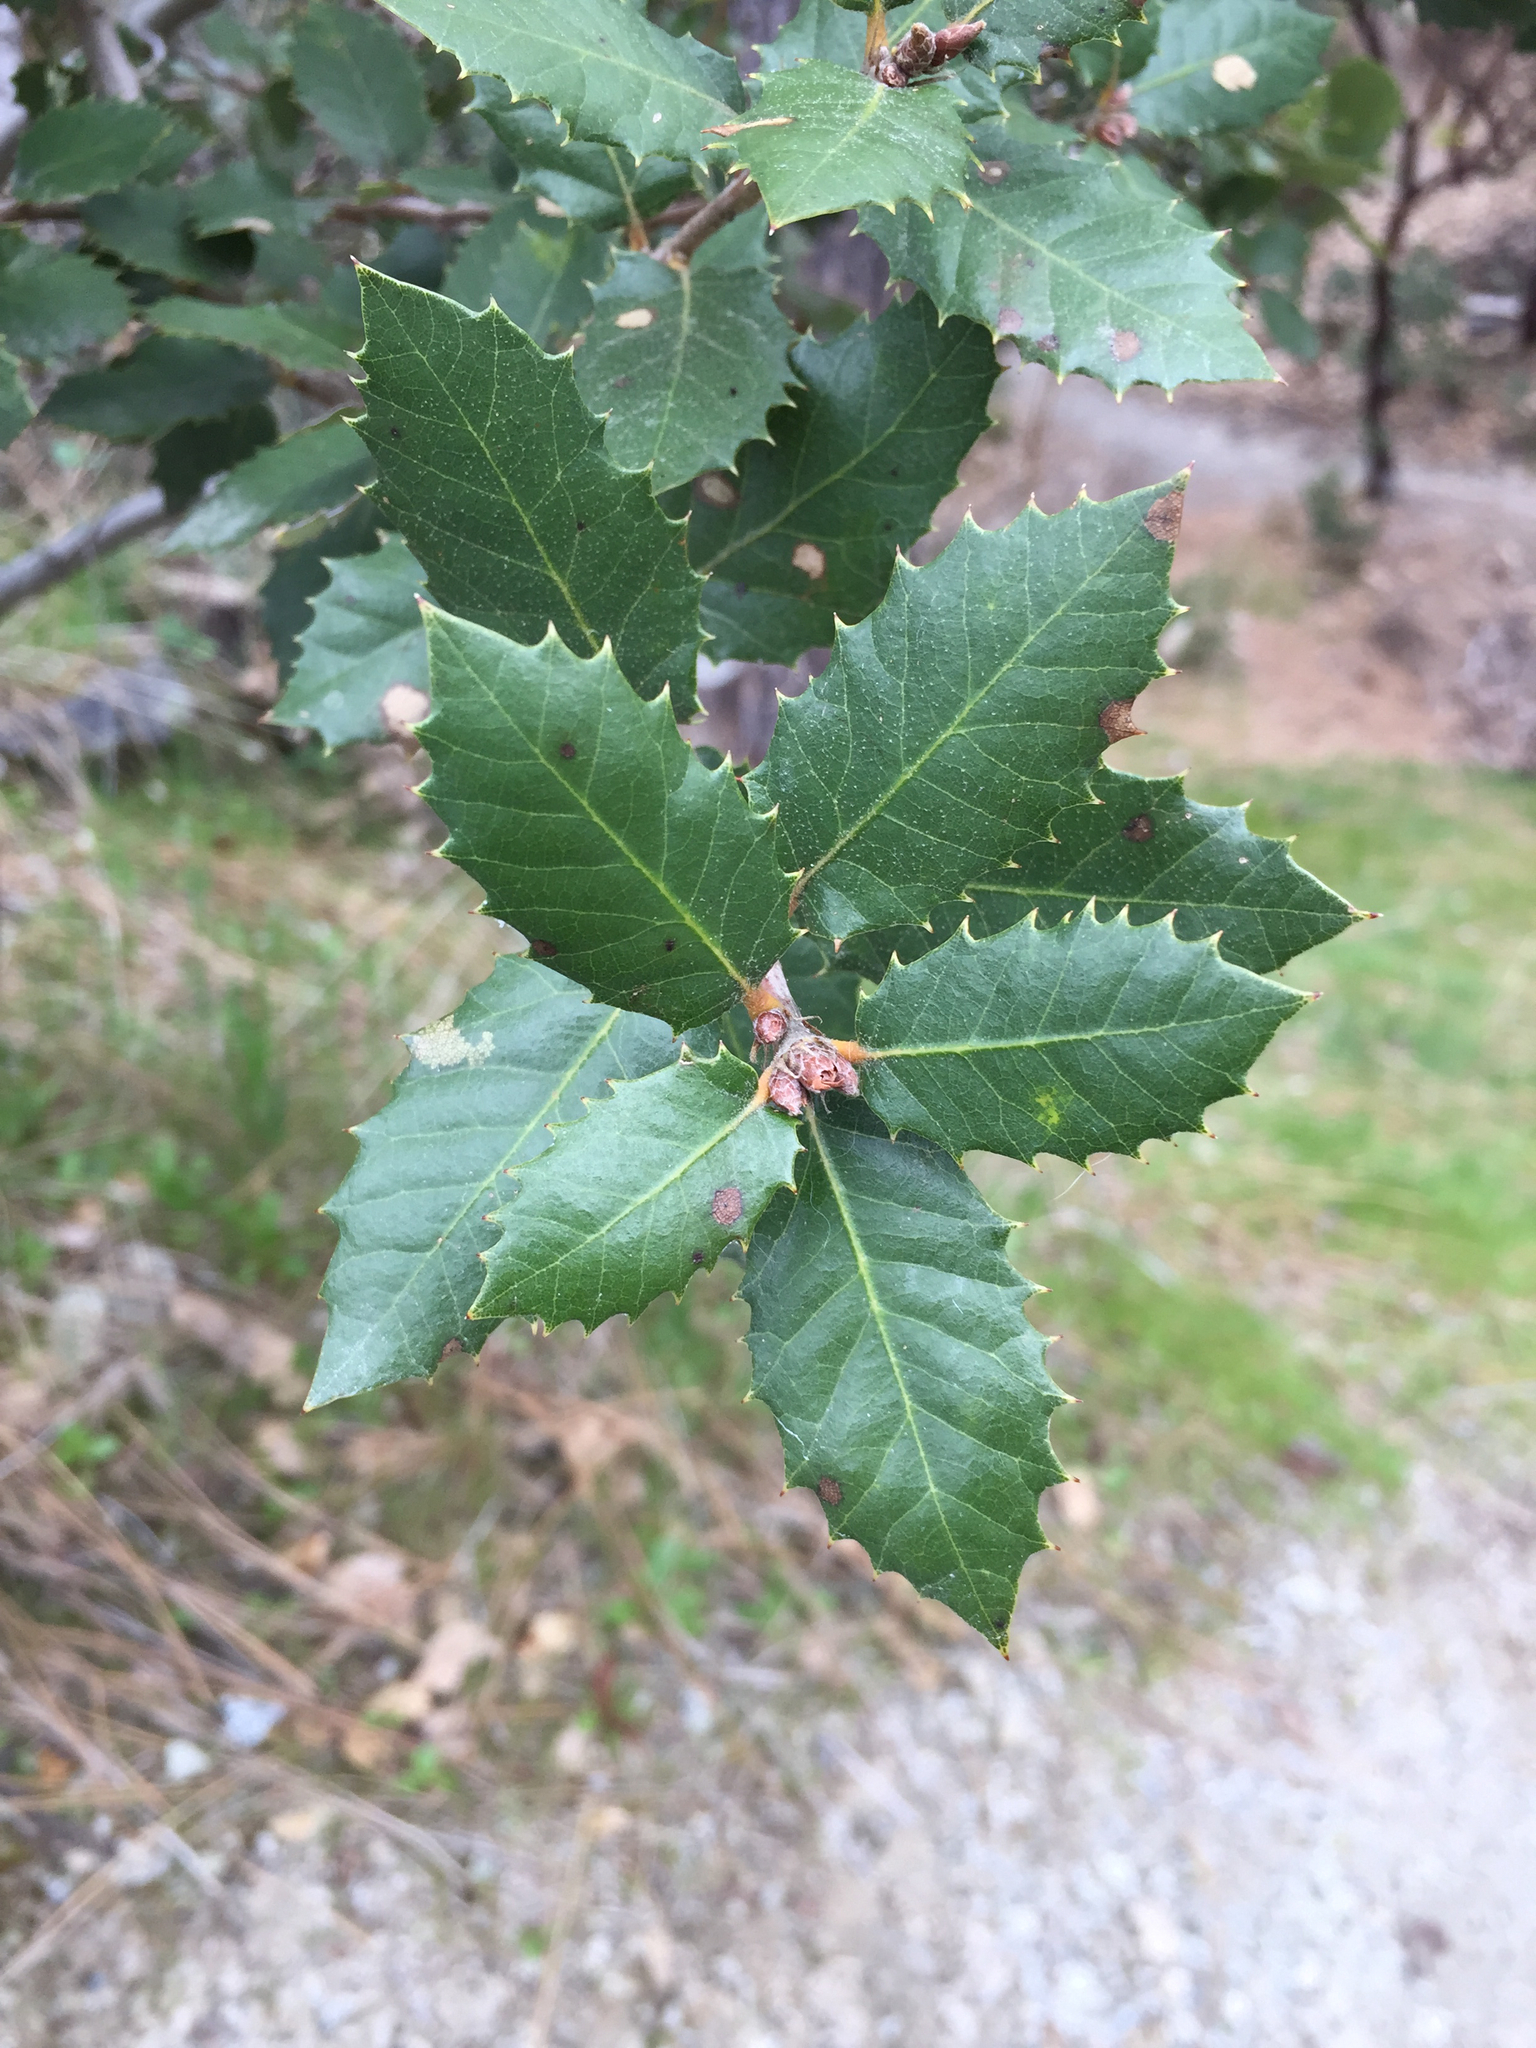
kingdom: Plantae
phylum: Tracheophyta
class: Magnoliopsida
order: Fagales
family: Fagaceae
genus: Quercus
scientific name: Quercus wislizeni
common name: Interior live oak
